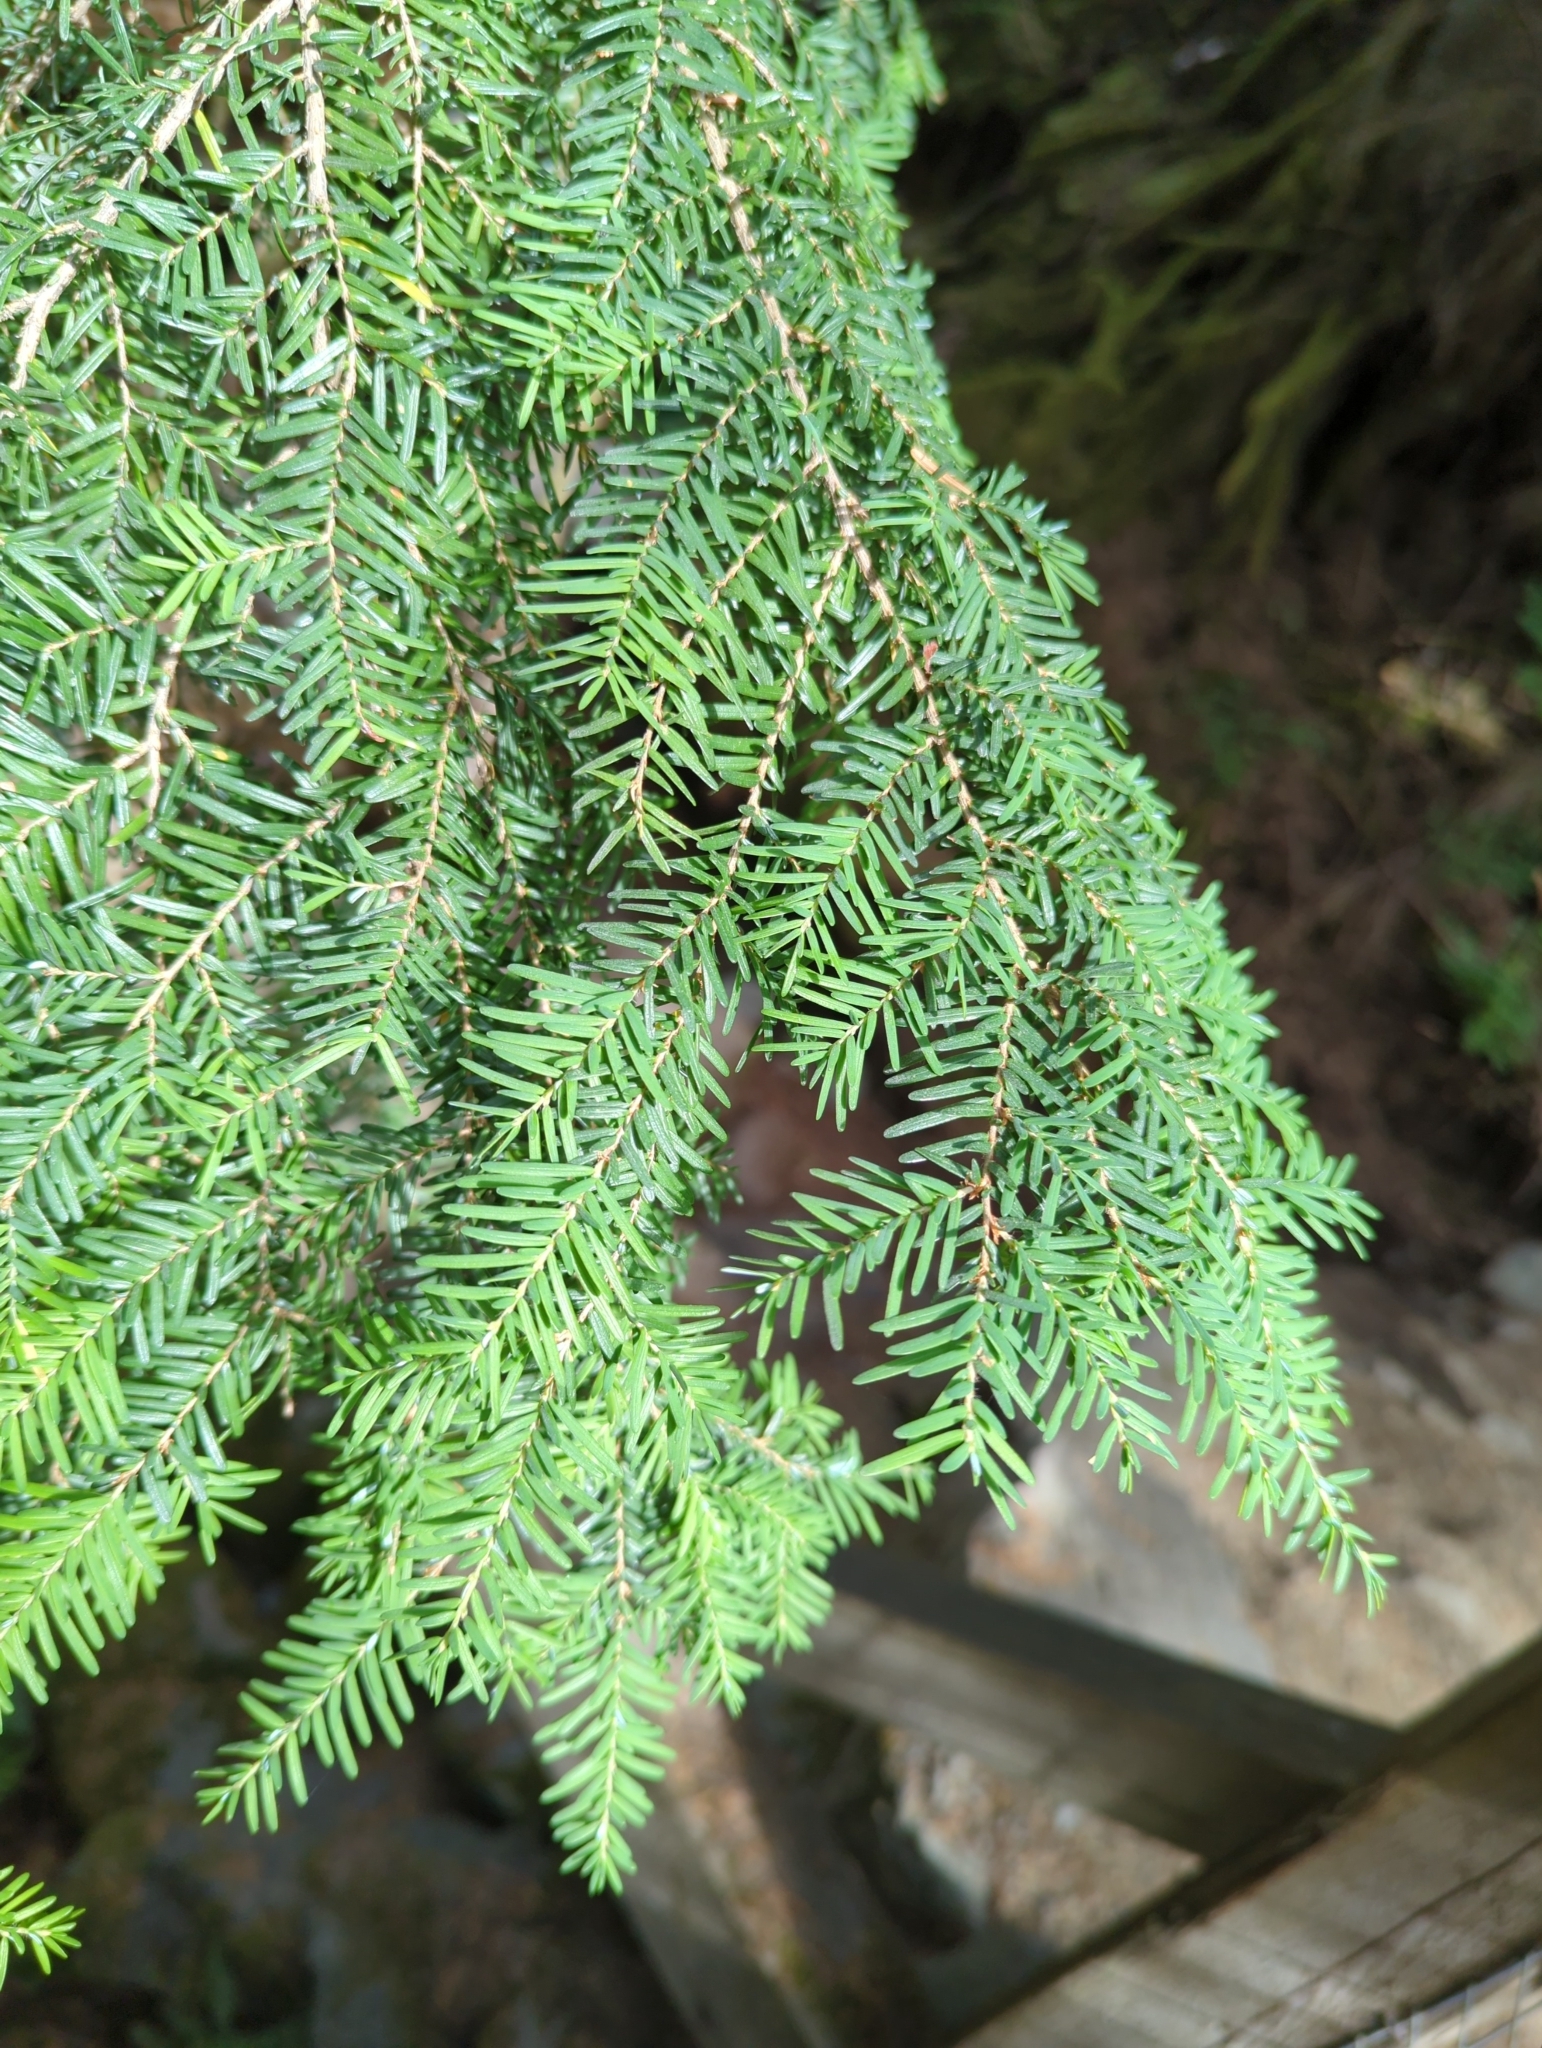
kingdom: Plantae
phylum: Tracheophyta
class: Pinopsida
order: Pinales
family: Pinaceae
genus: Tsuga
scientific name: Tsuga heterophylla
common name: Western hemlock
